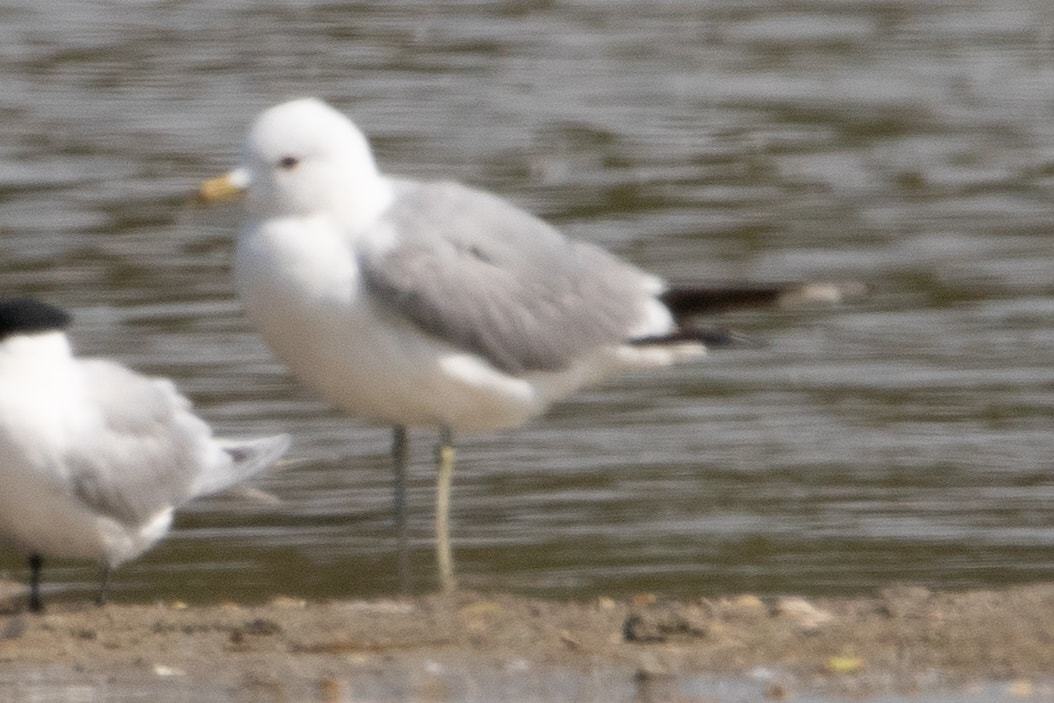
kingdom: Animalia
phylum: Chordata
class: Aves
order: Charadriiformes
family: Laridae
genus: Larus
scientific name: Larus canus
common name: Mew gull
